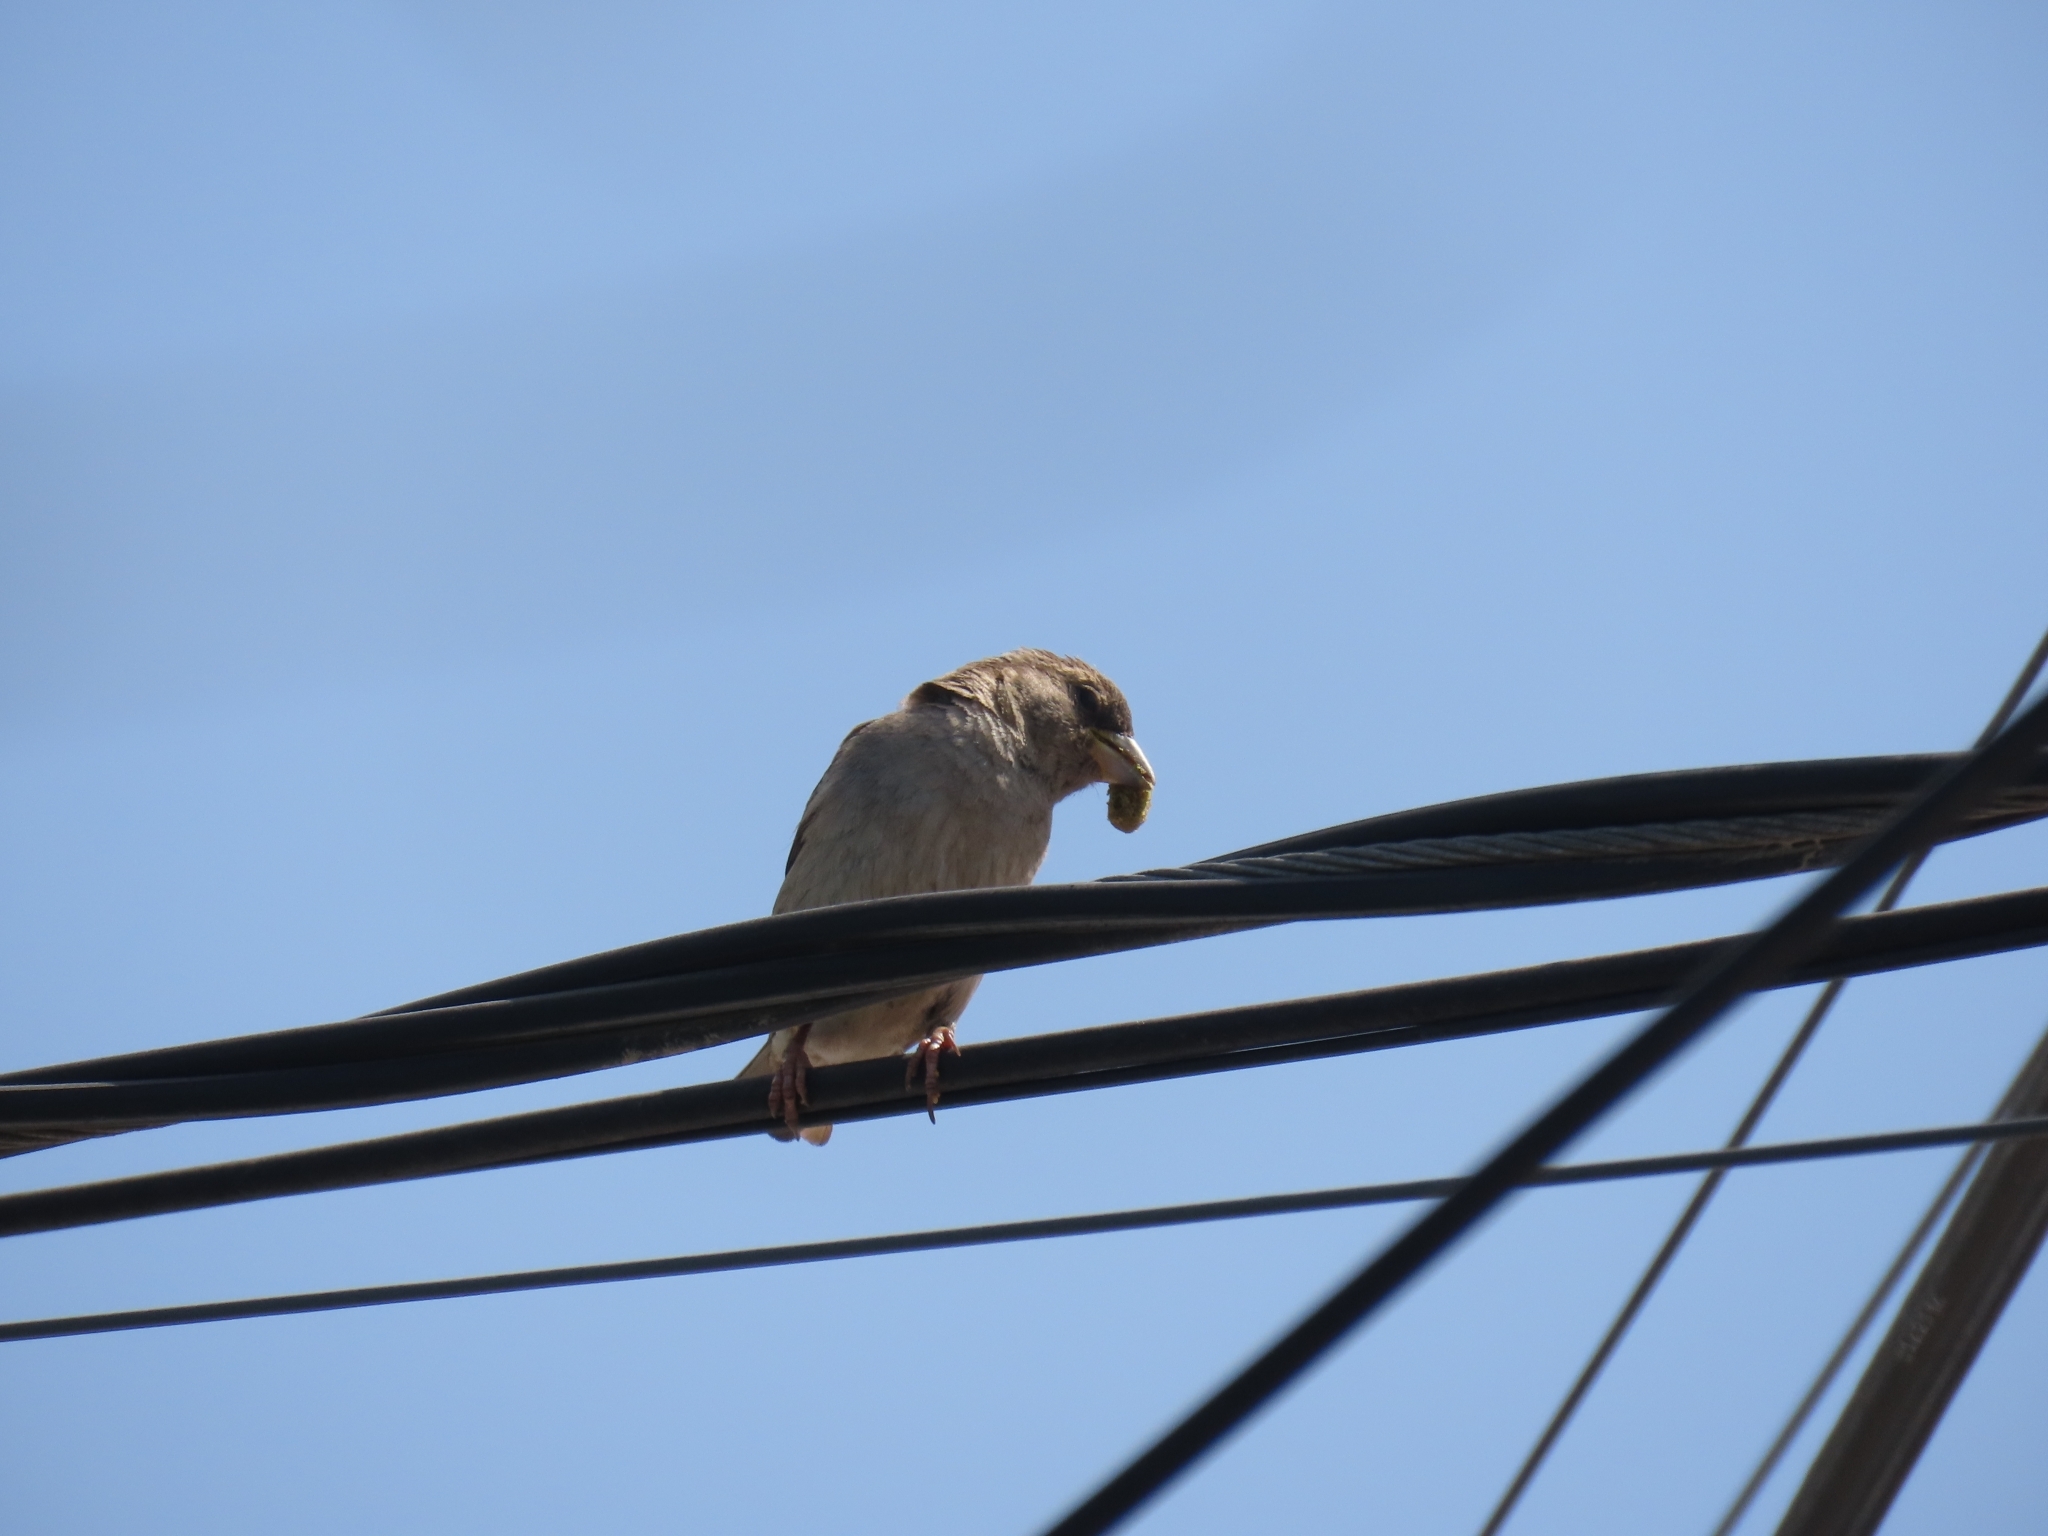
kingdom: Animalia
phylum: Chordata
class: Aves
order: Passeriformes
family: Passeridae
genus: Passer
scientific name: Passer domesticus
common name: House sparrow
